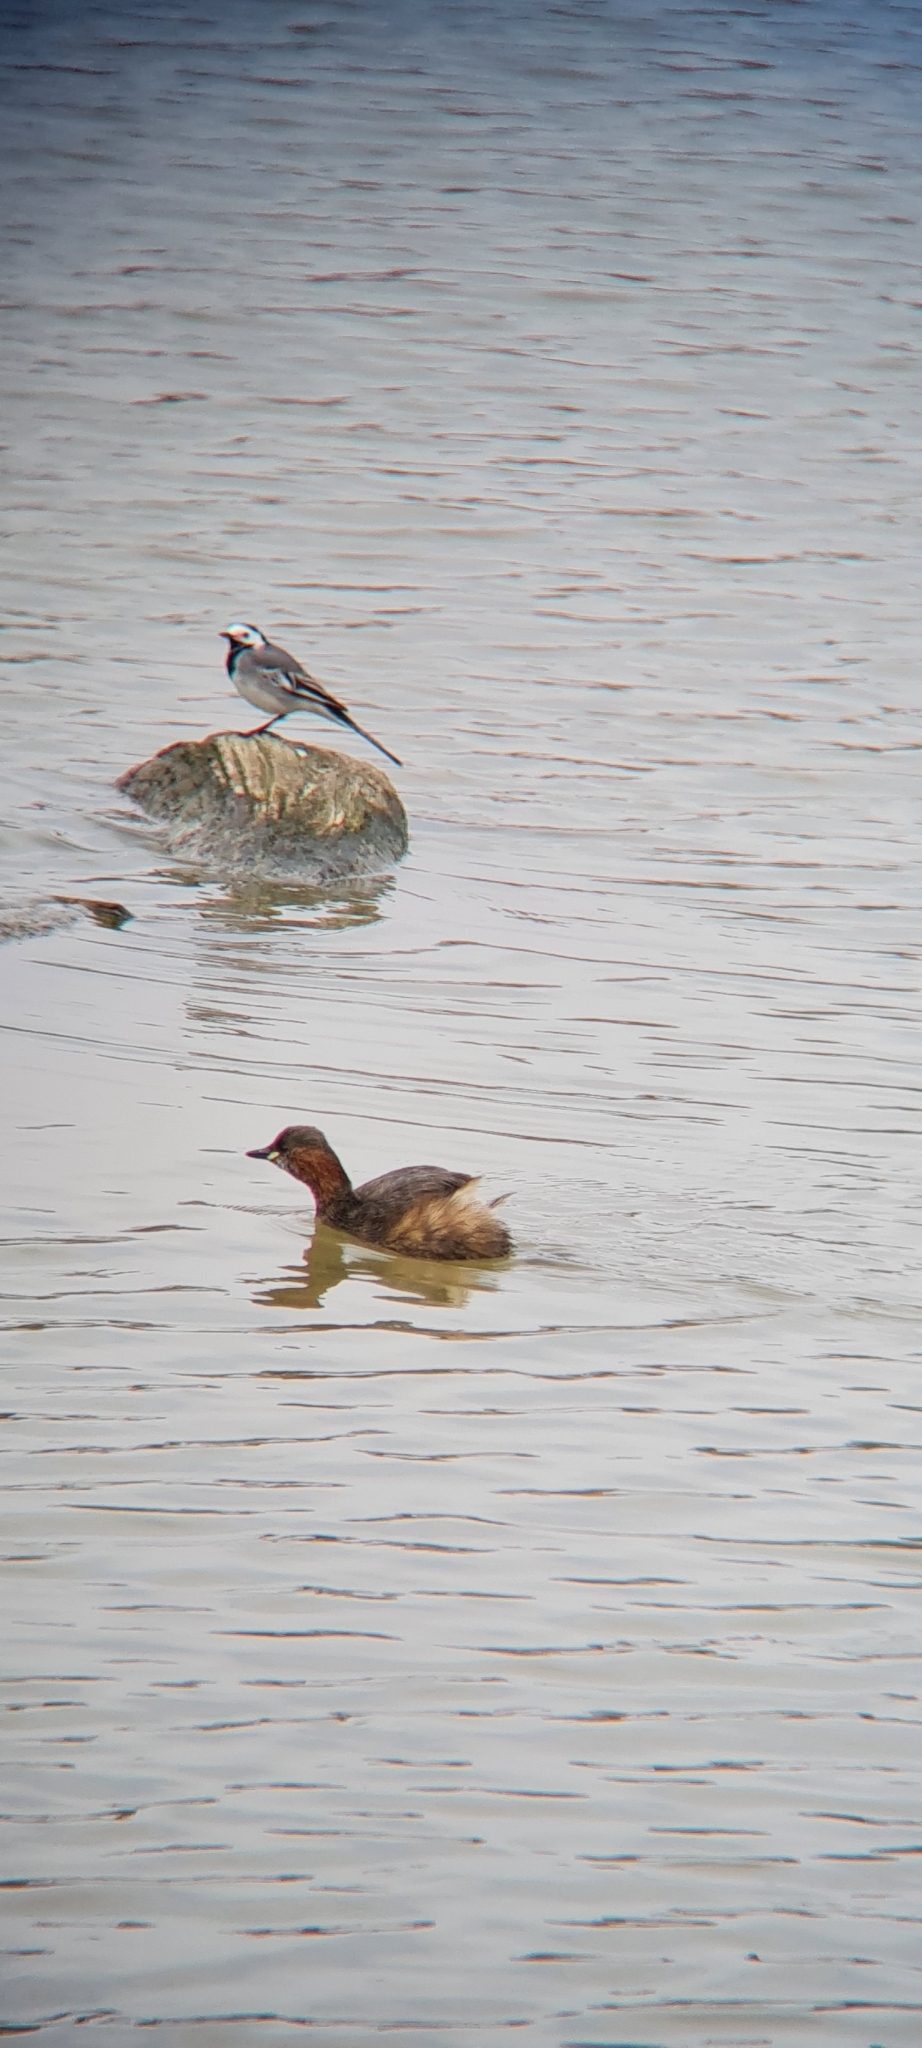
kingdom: Animalia
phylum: Chordata
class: Aves
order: Podicipediformes
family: Podicipedidae
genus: Tachybaptus
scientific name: Tachybaptus ruficollis
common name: Little grebe
